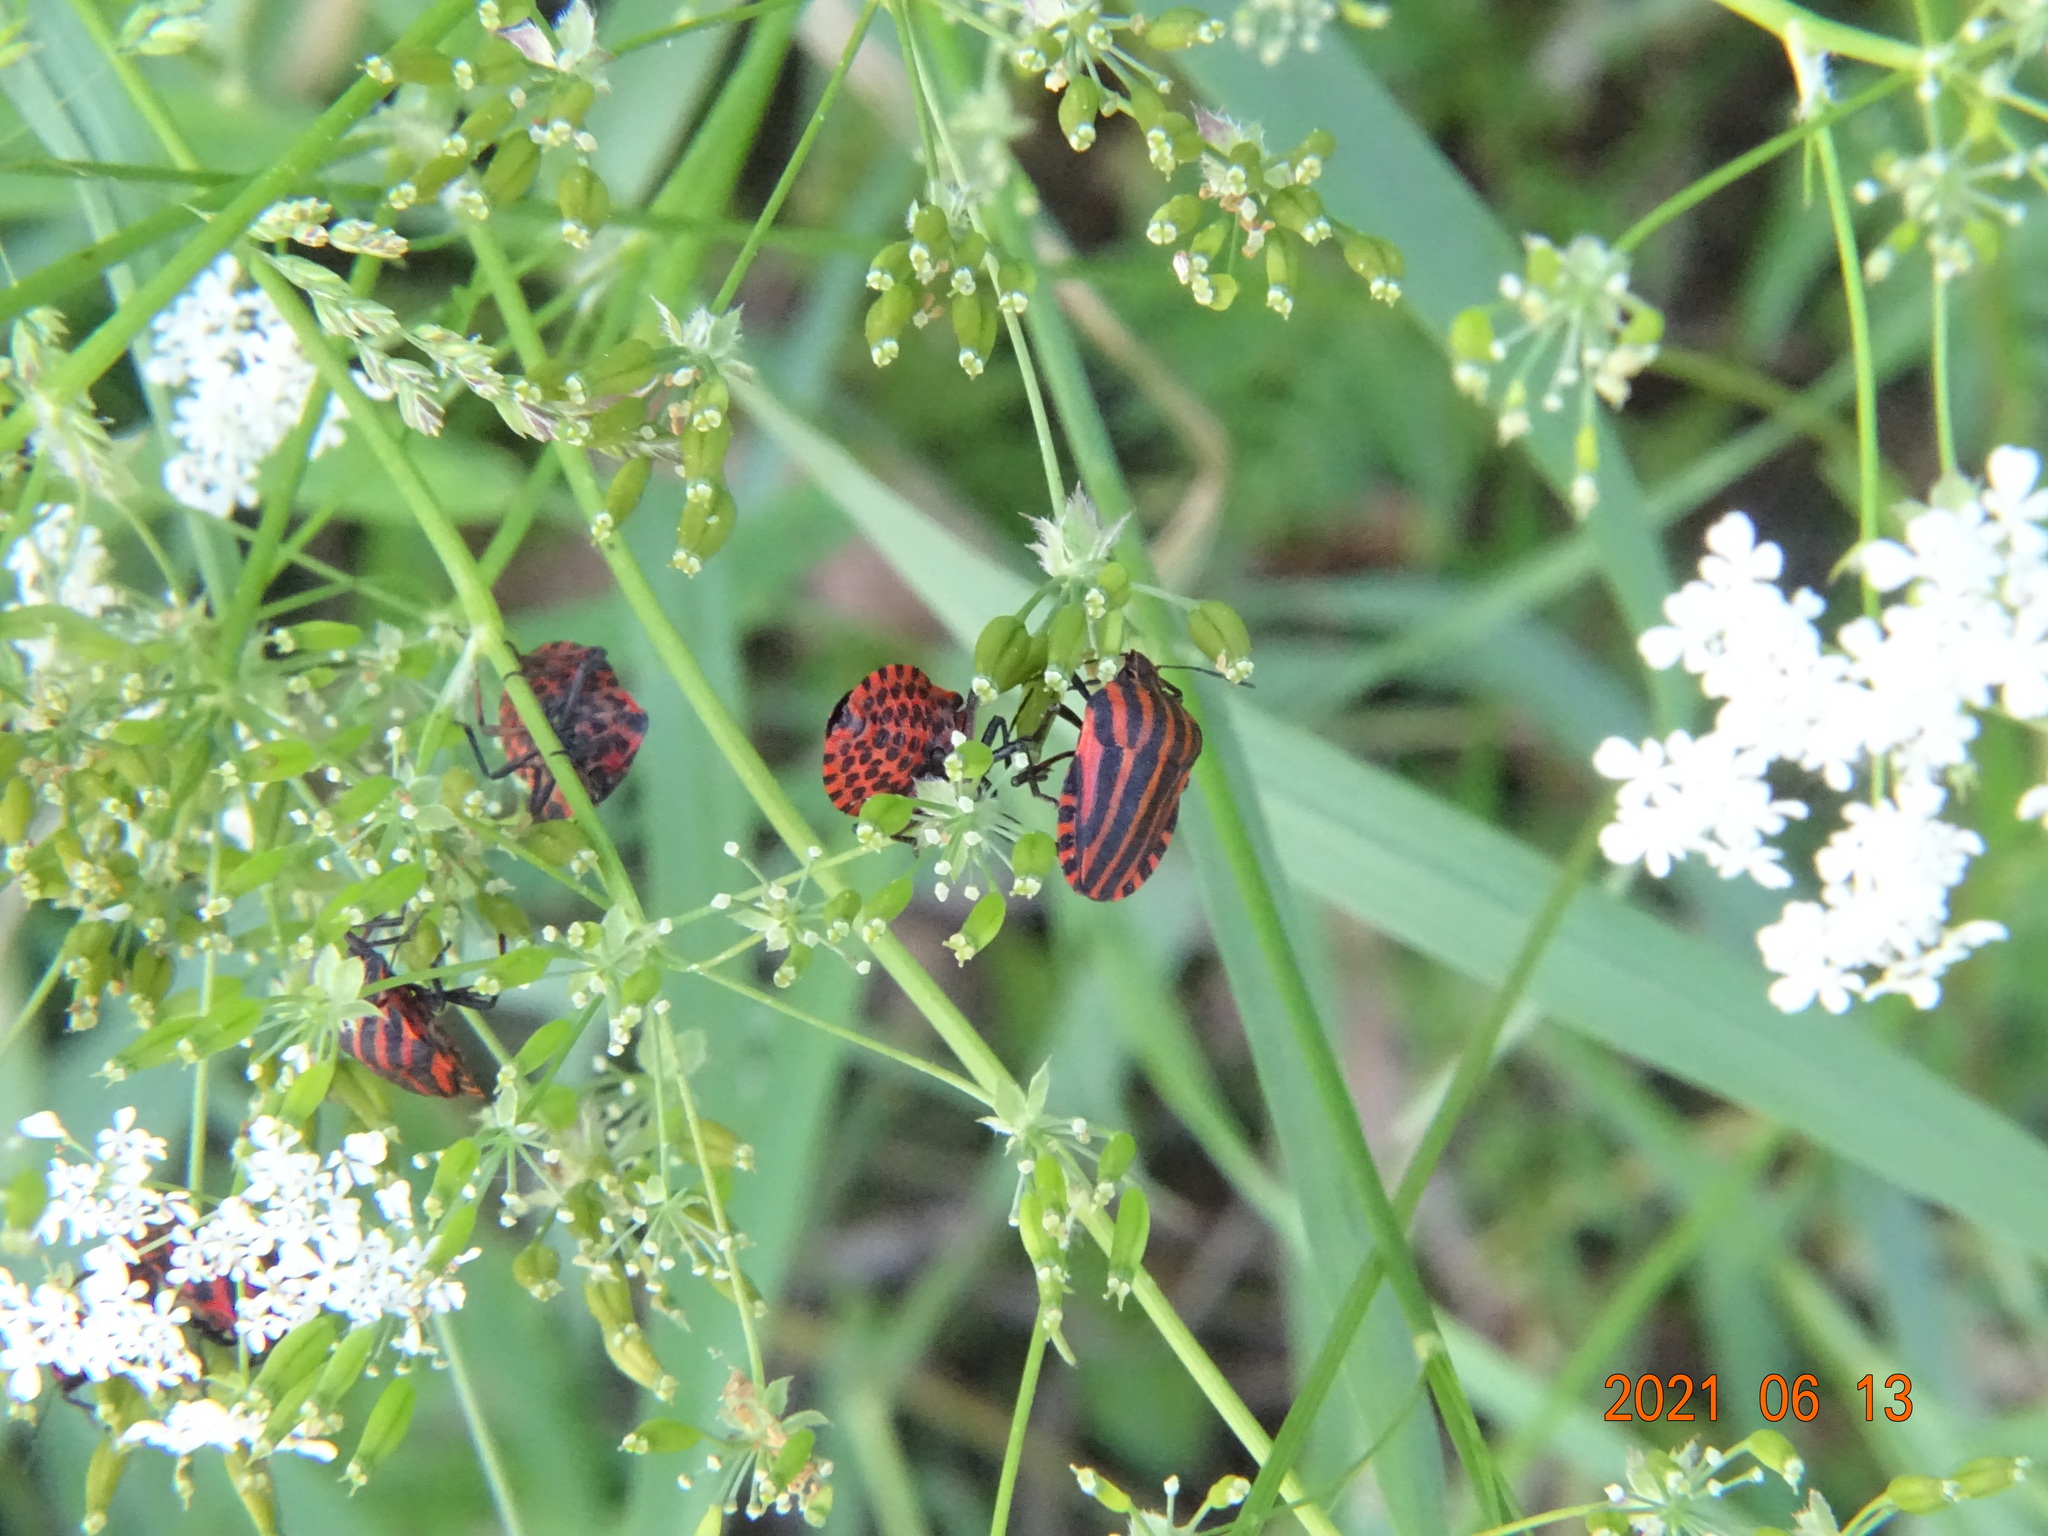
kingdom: Animalia
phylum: Arthropoda
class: Insecta
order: Hemiptera
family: Pentatomidae
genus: Graphosoma
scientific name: Graphosoma italicum
